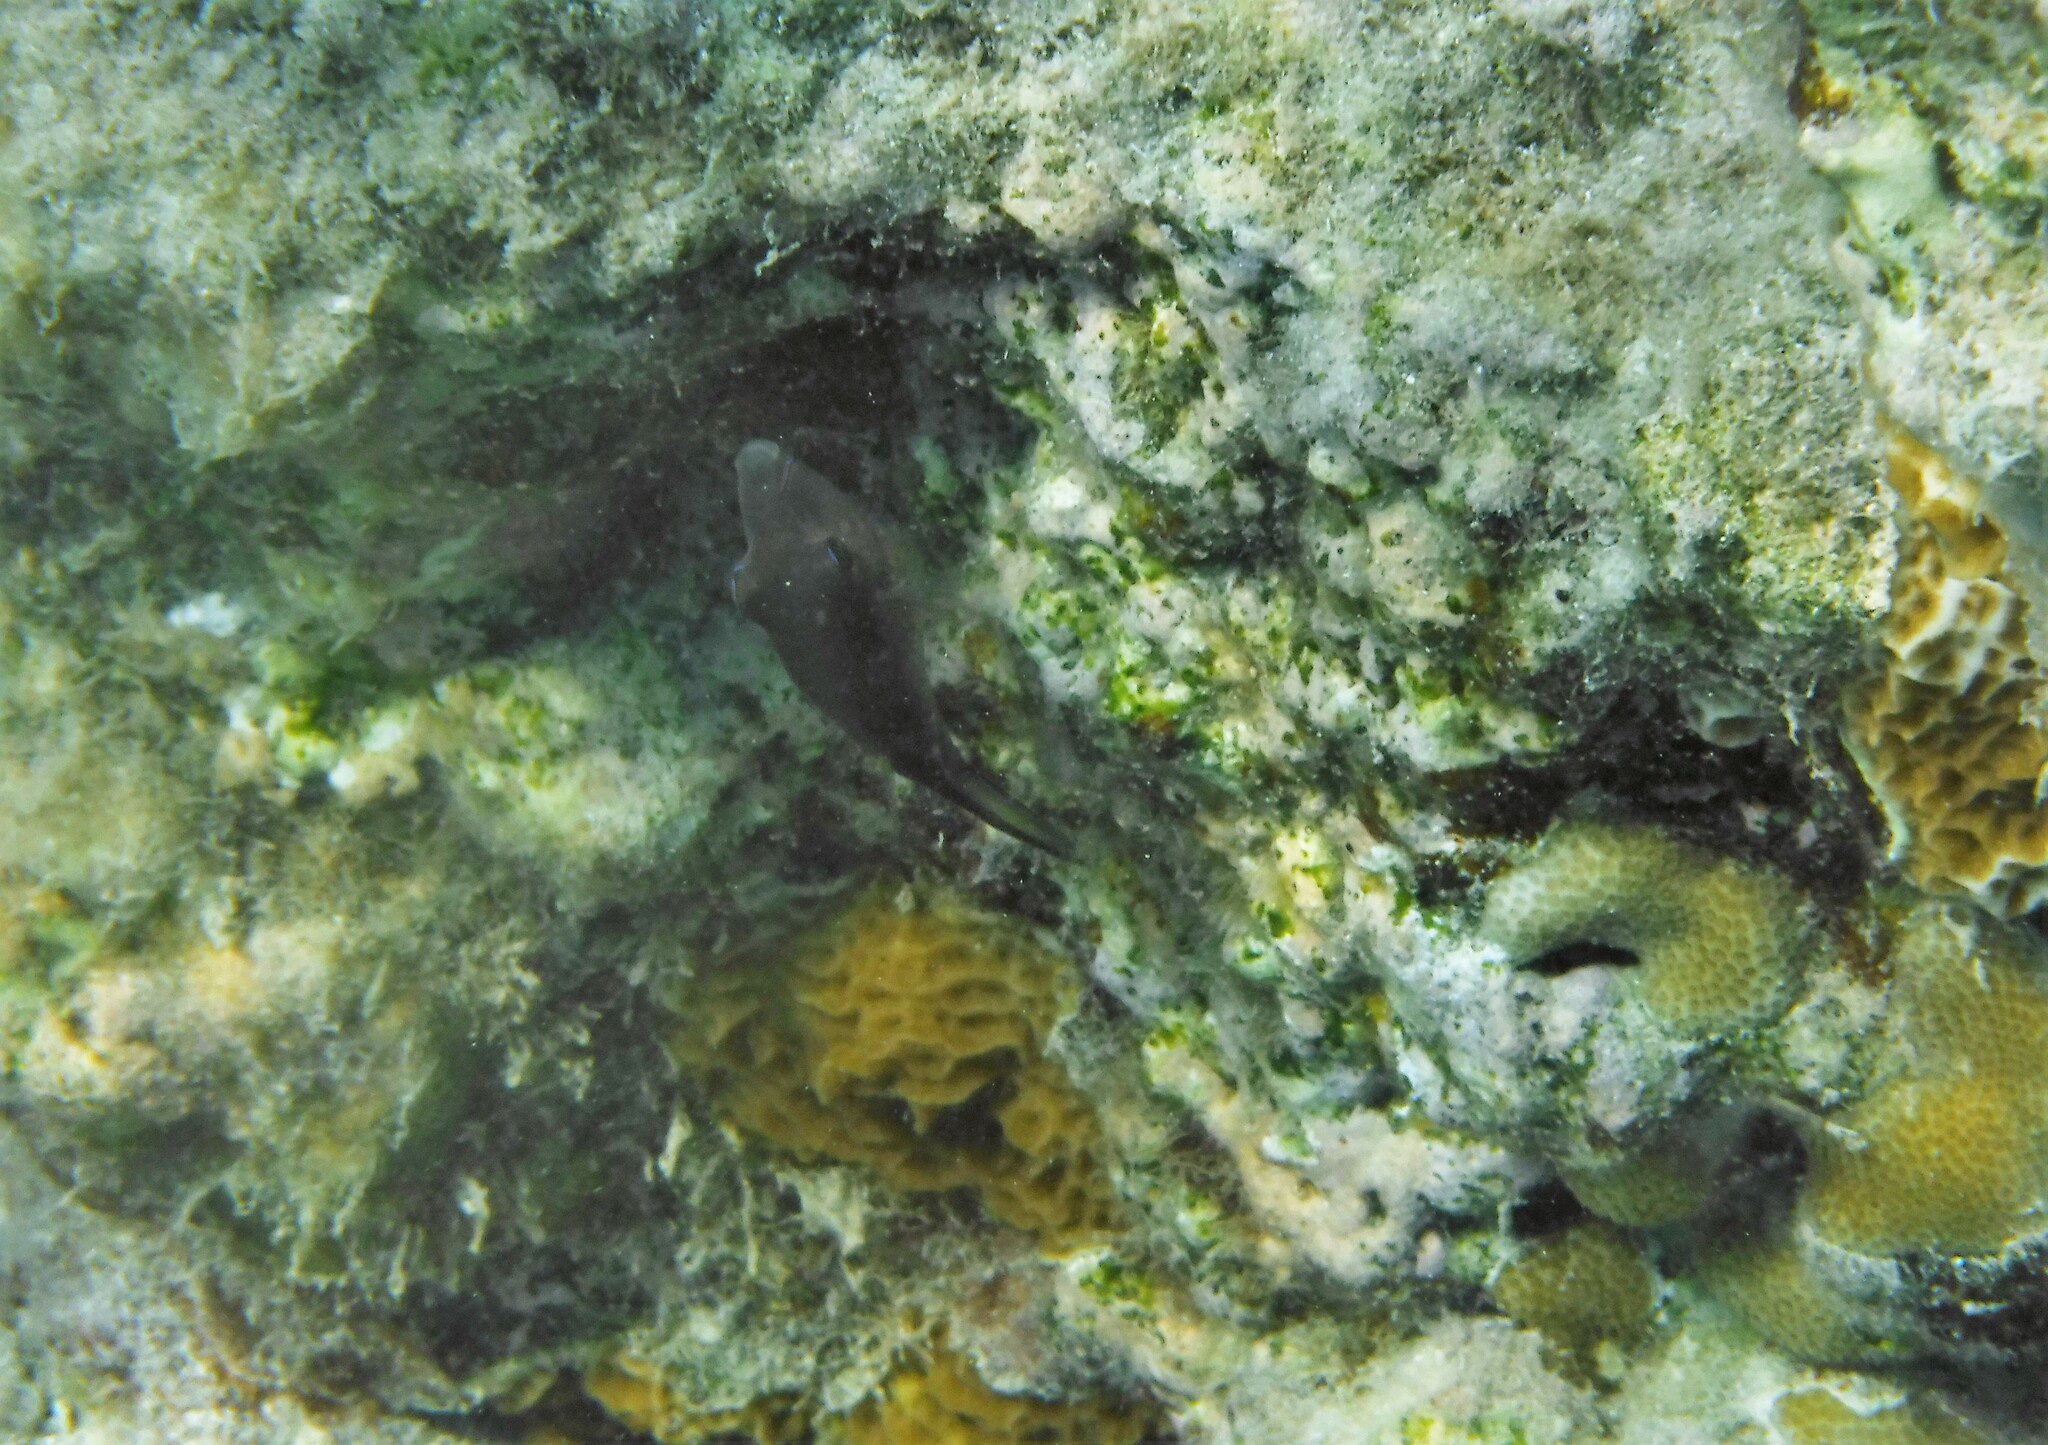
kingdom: Animalia
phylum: Chordata
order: Tetraodontiformes
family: Tetraodontidae
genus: Canthigaster
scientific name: Canthigaster rostrata
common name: Caribbean sharpnose-puffer
